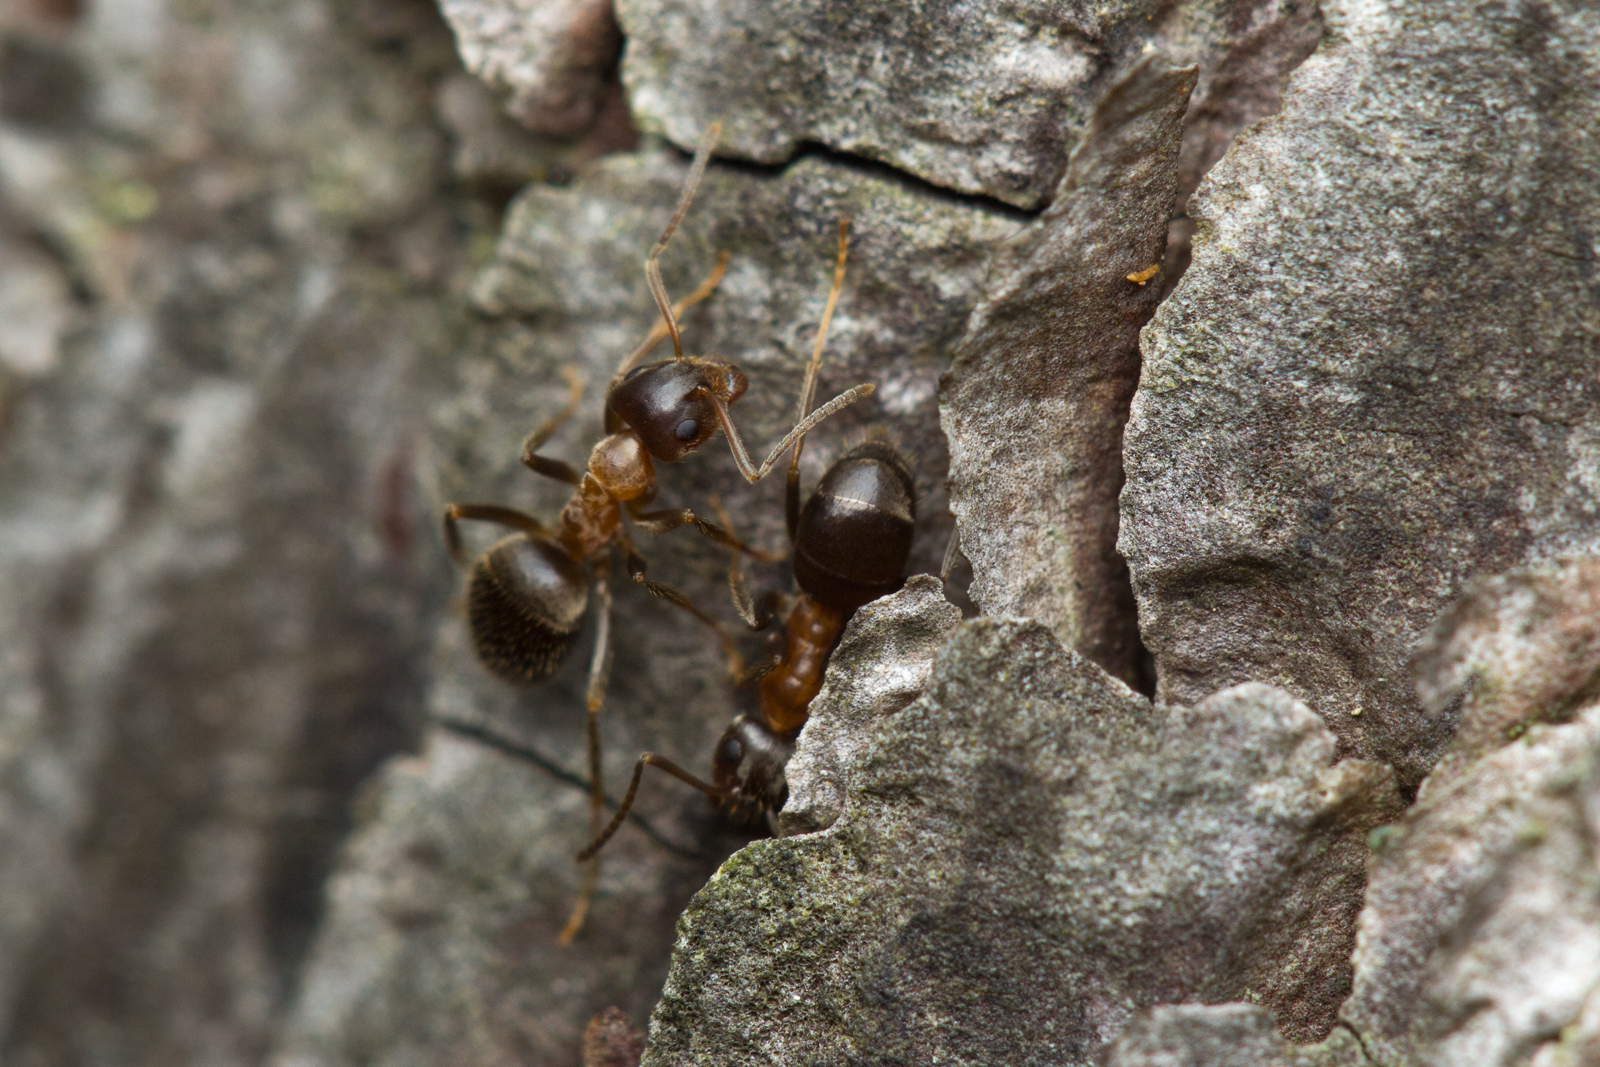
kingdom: Animalia
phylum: Arthropoda
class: Insecta
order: Hymenoptera
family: Formicidae
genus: Lasius
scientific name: Lasius emarginatus
